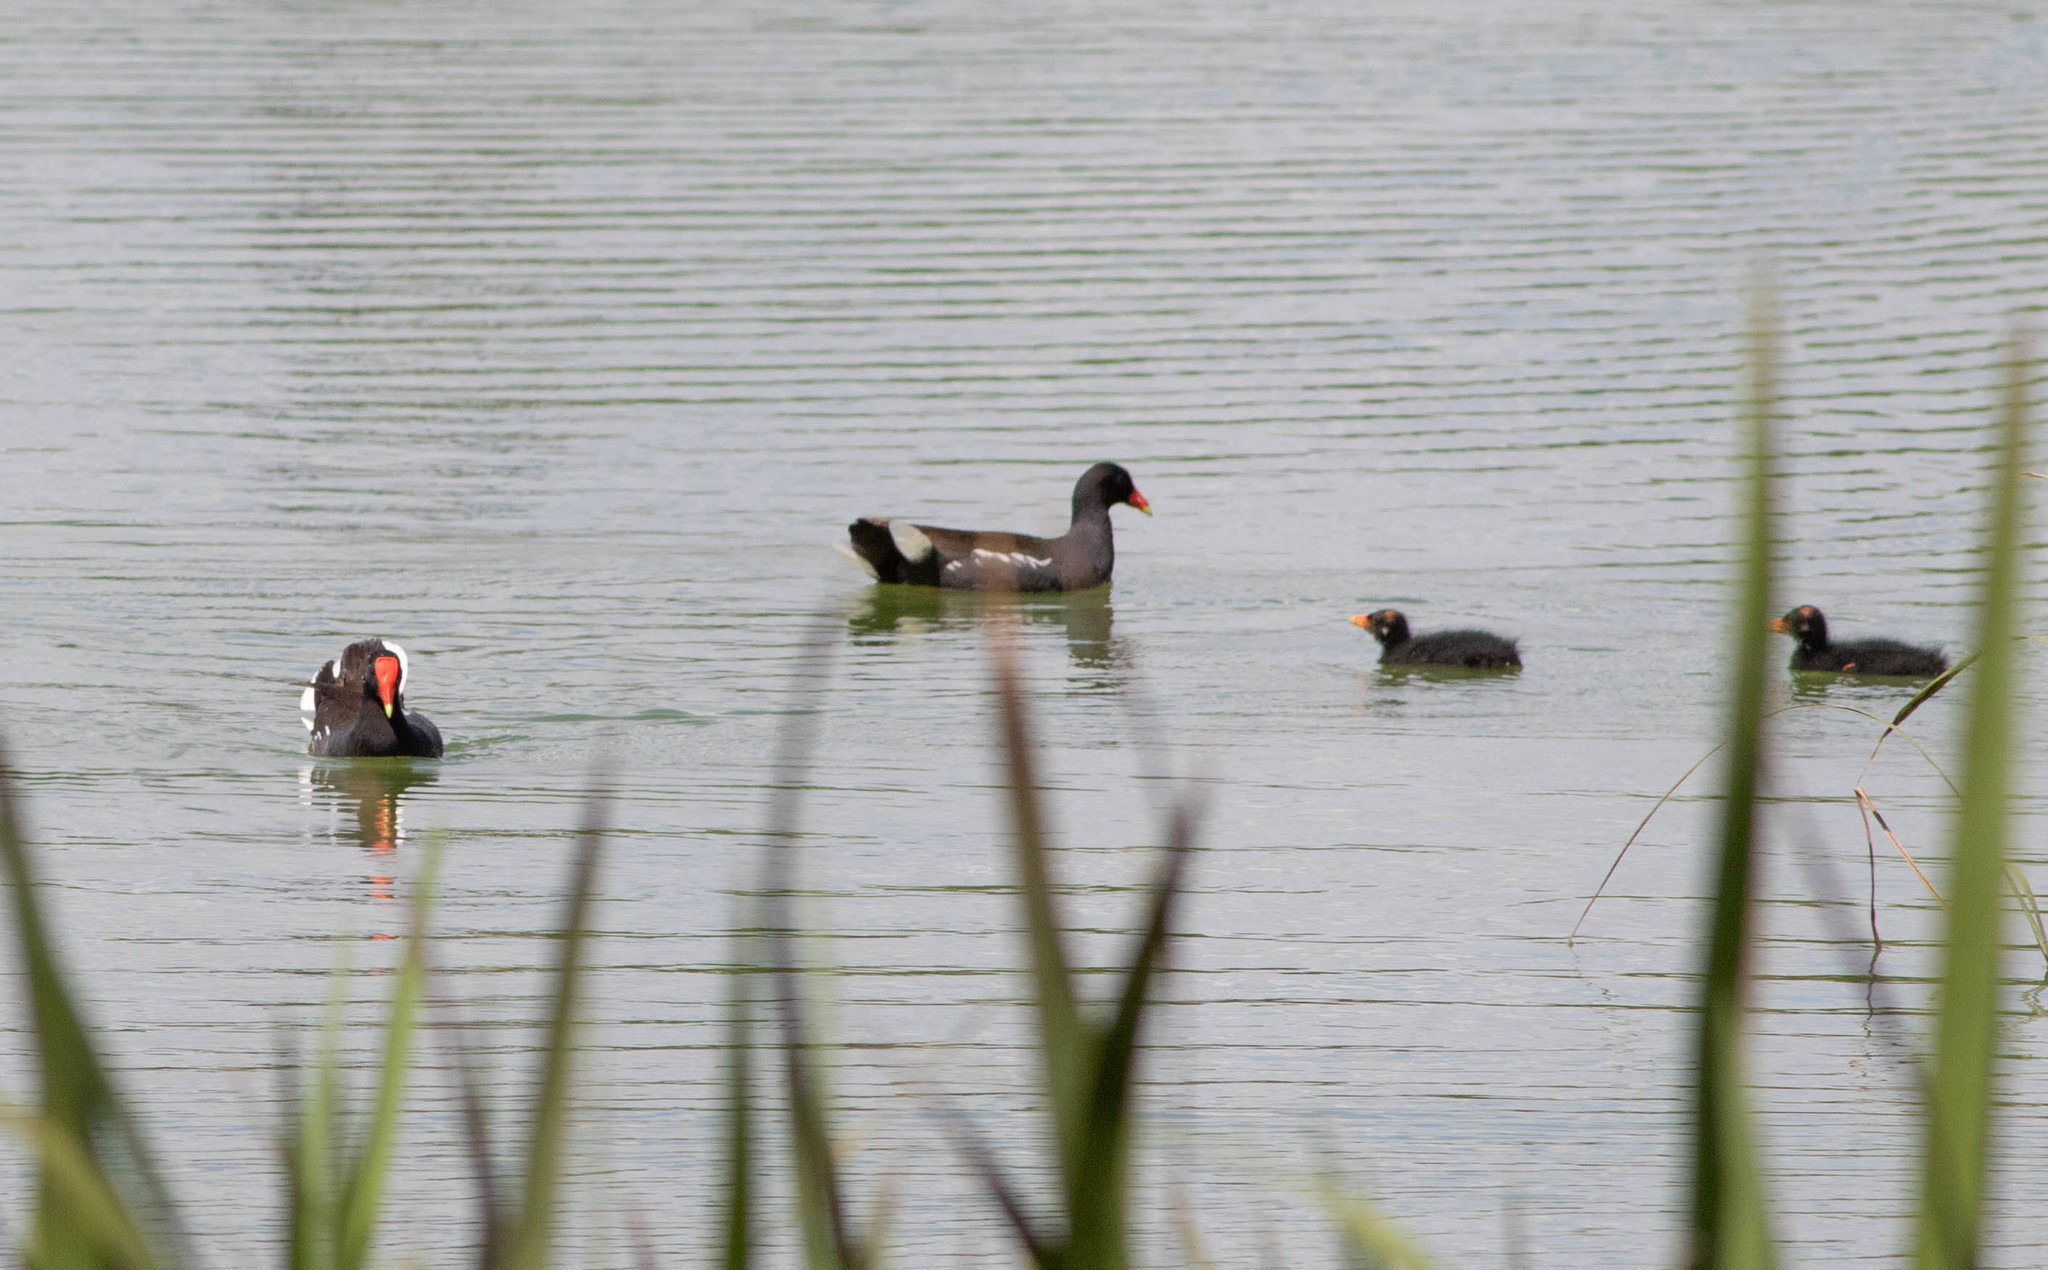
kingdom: Animalia
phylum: Chordata
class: Aves
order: Gruiformes
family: Rallidae
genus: Gallinula
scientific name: Gallinula chloropus
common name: Common moorhen
